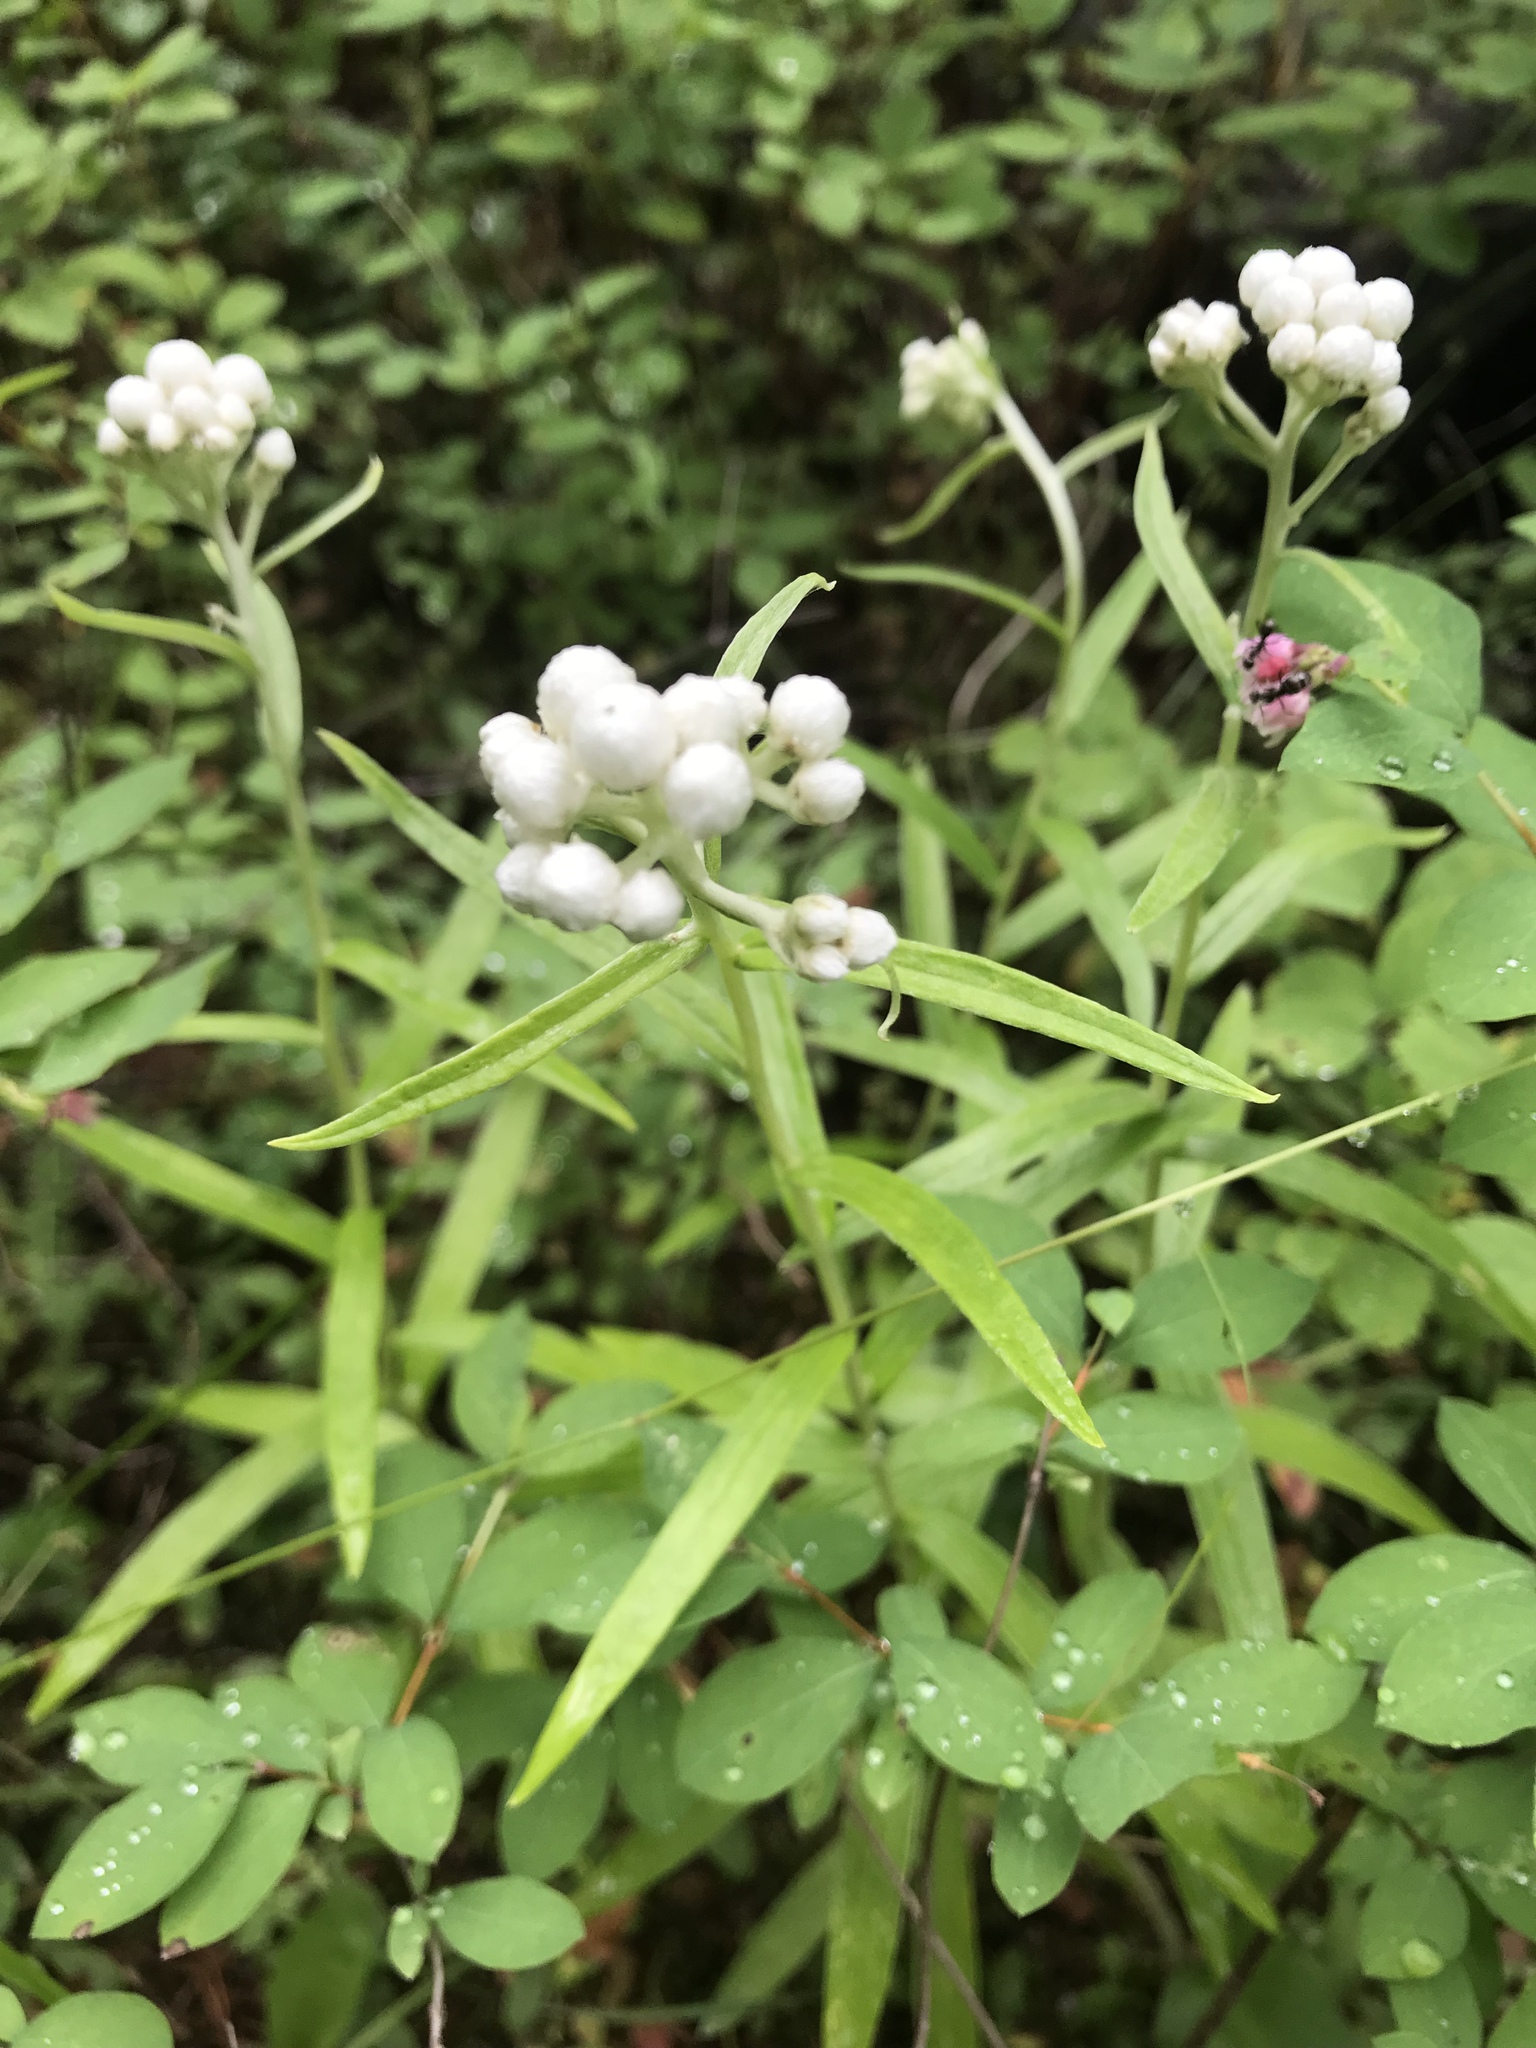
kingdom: Plantae
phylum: Tracheophyta
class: Magnoliopsida
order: Asterales
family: Asteraceae
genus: Anaphalis
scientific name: Anaphalis margaritacea
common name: Pearly everlasting
